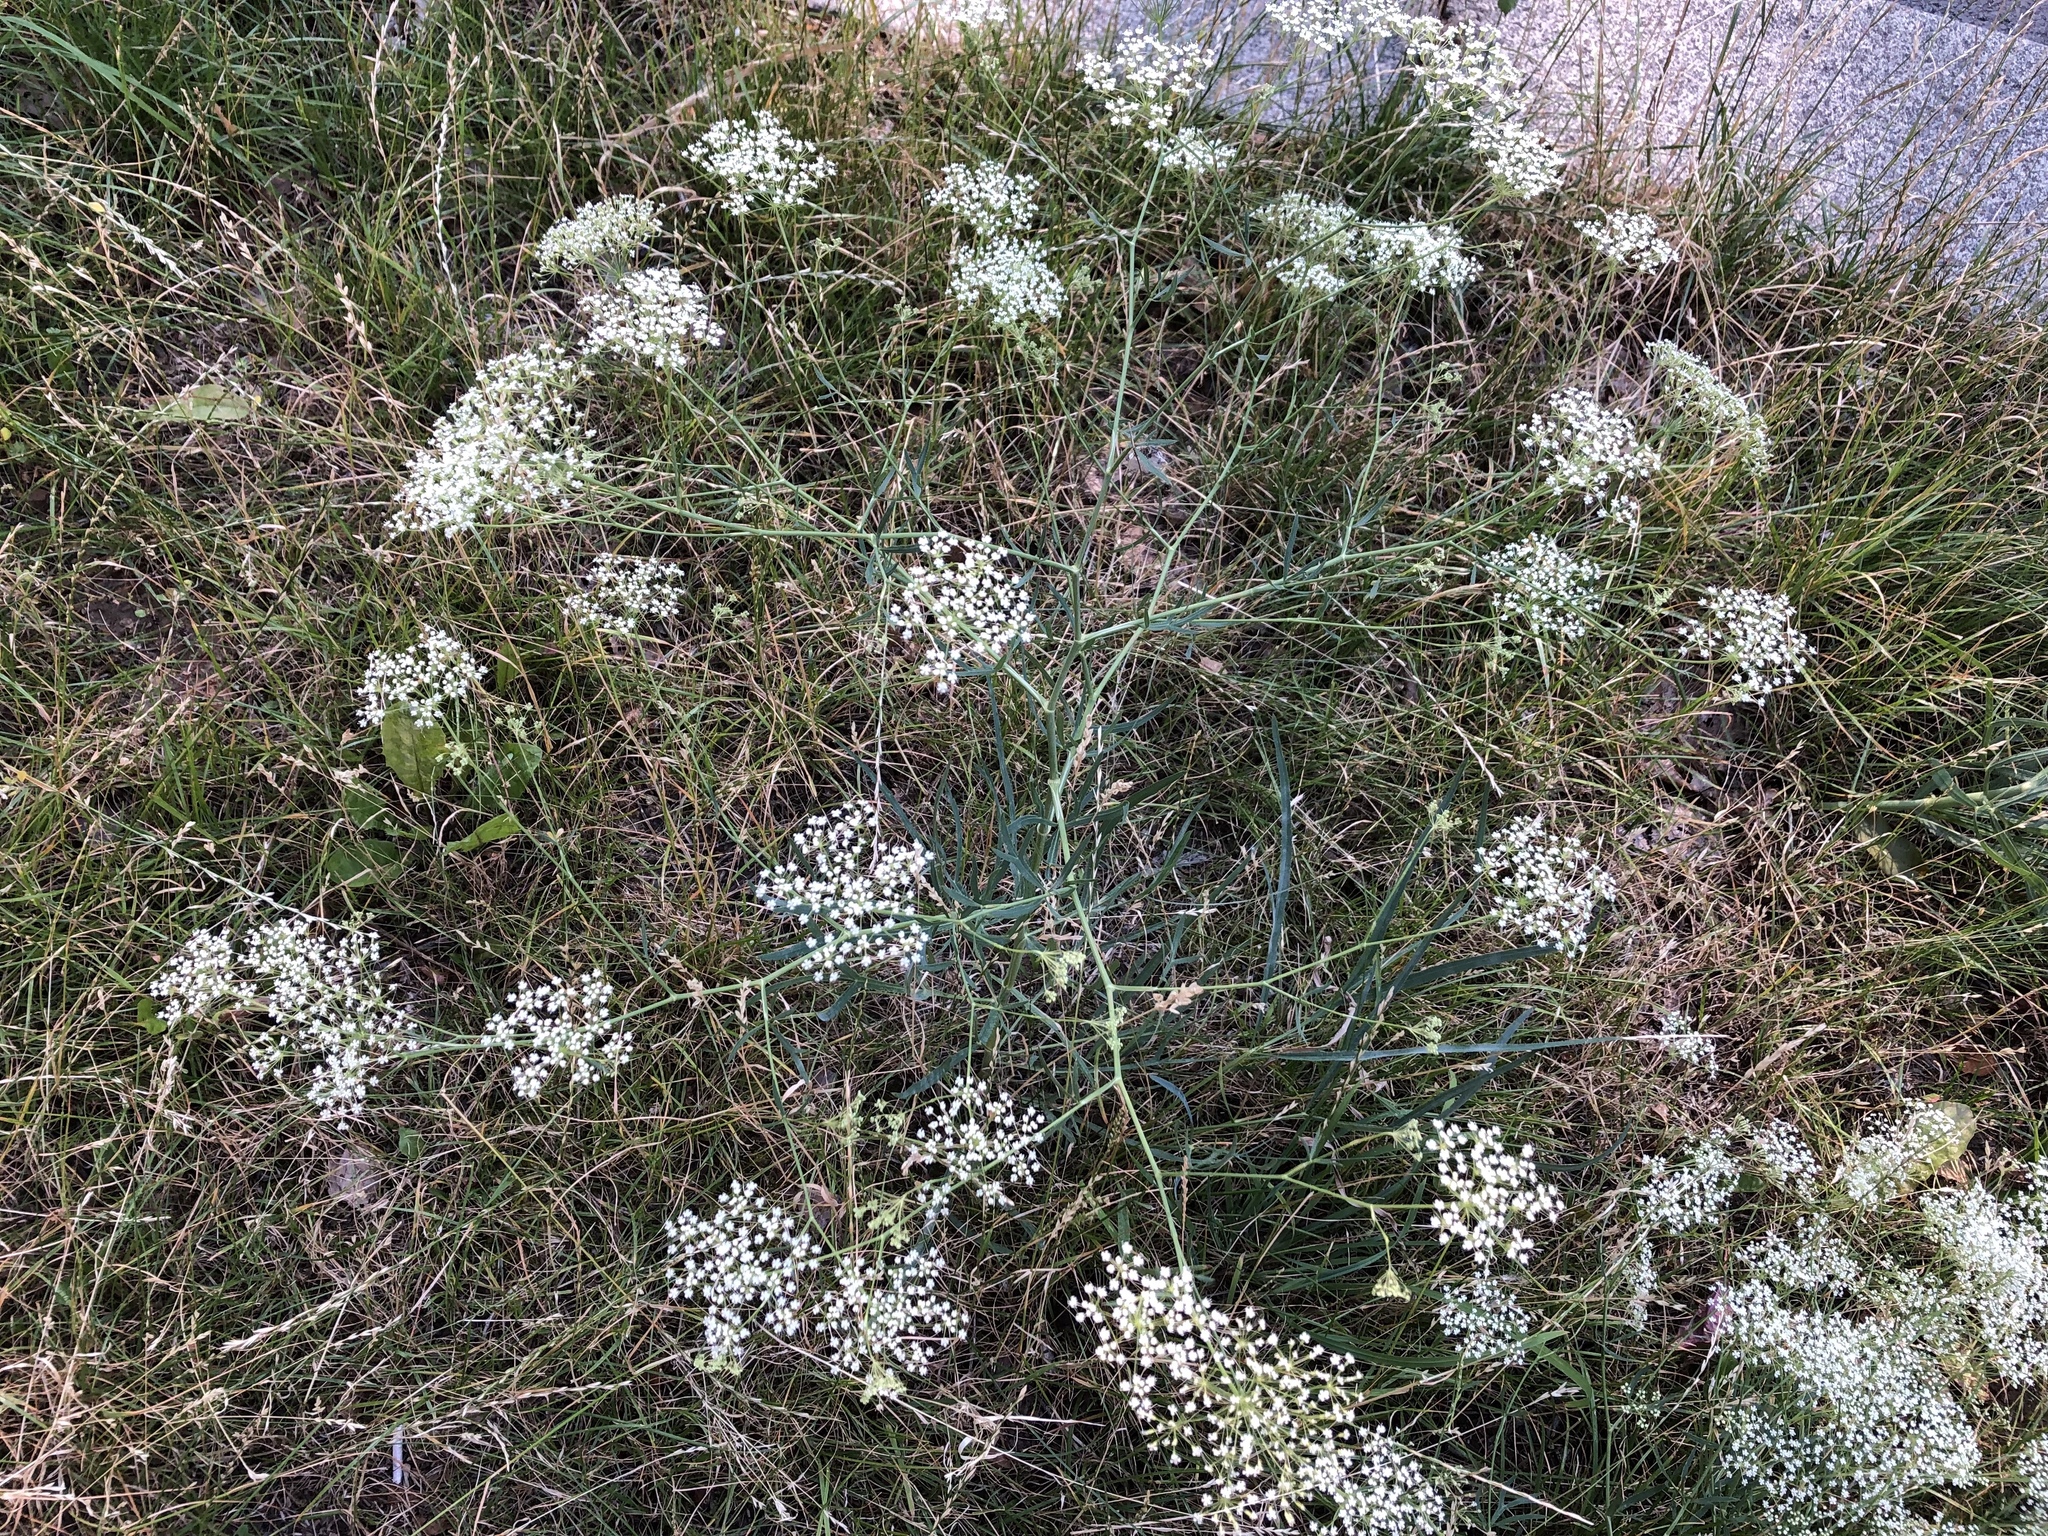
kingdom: Plantae
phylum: Tracheophyta
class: Magnoliopsida
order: Apiales
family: Apiaceae
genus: Falcaria
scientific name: Falcaria vulgaris
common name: Longleaf
